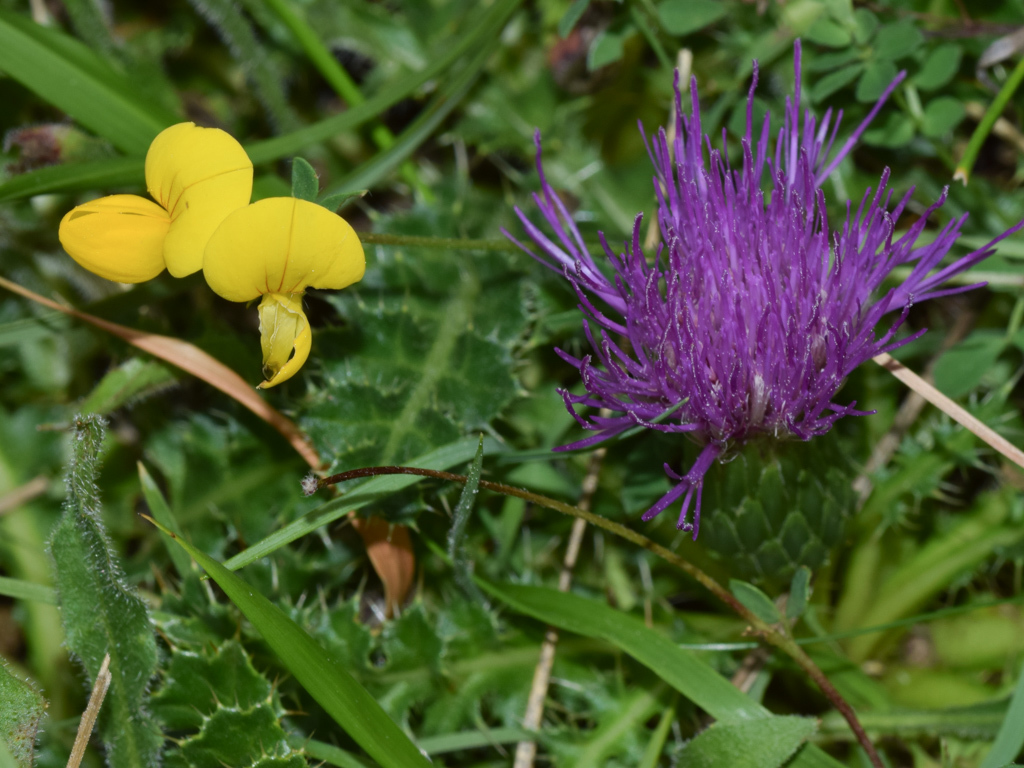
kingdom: Plantae
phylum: Tracheophyta
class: Magnoliopsida
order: Asterales
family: Asteraceae
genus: Cirsium
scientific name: Cirsium acaulon
